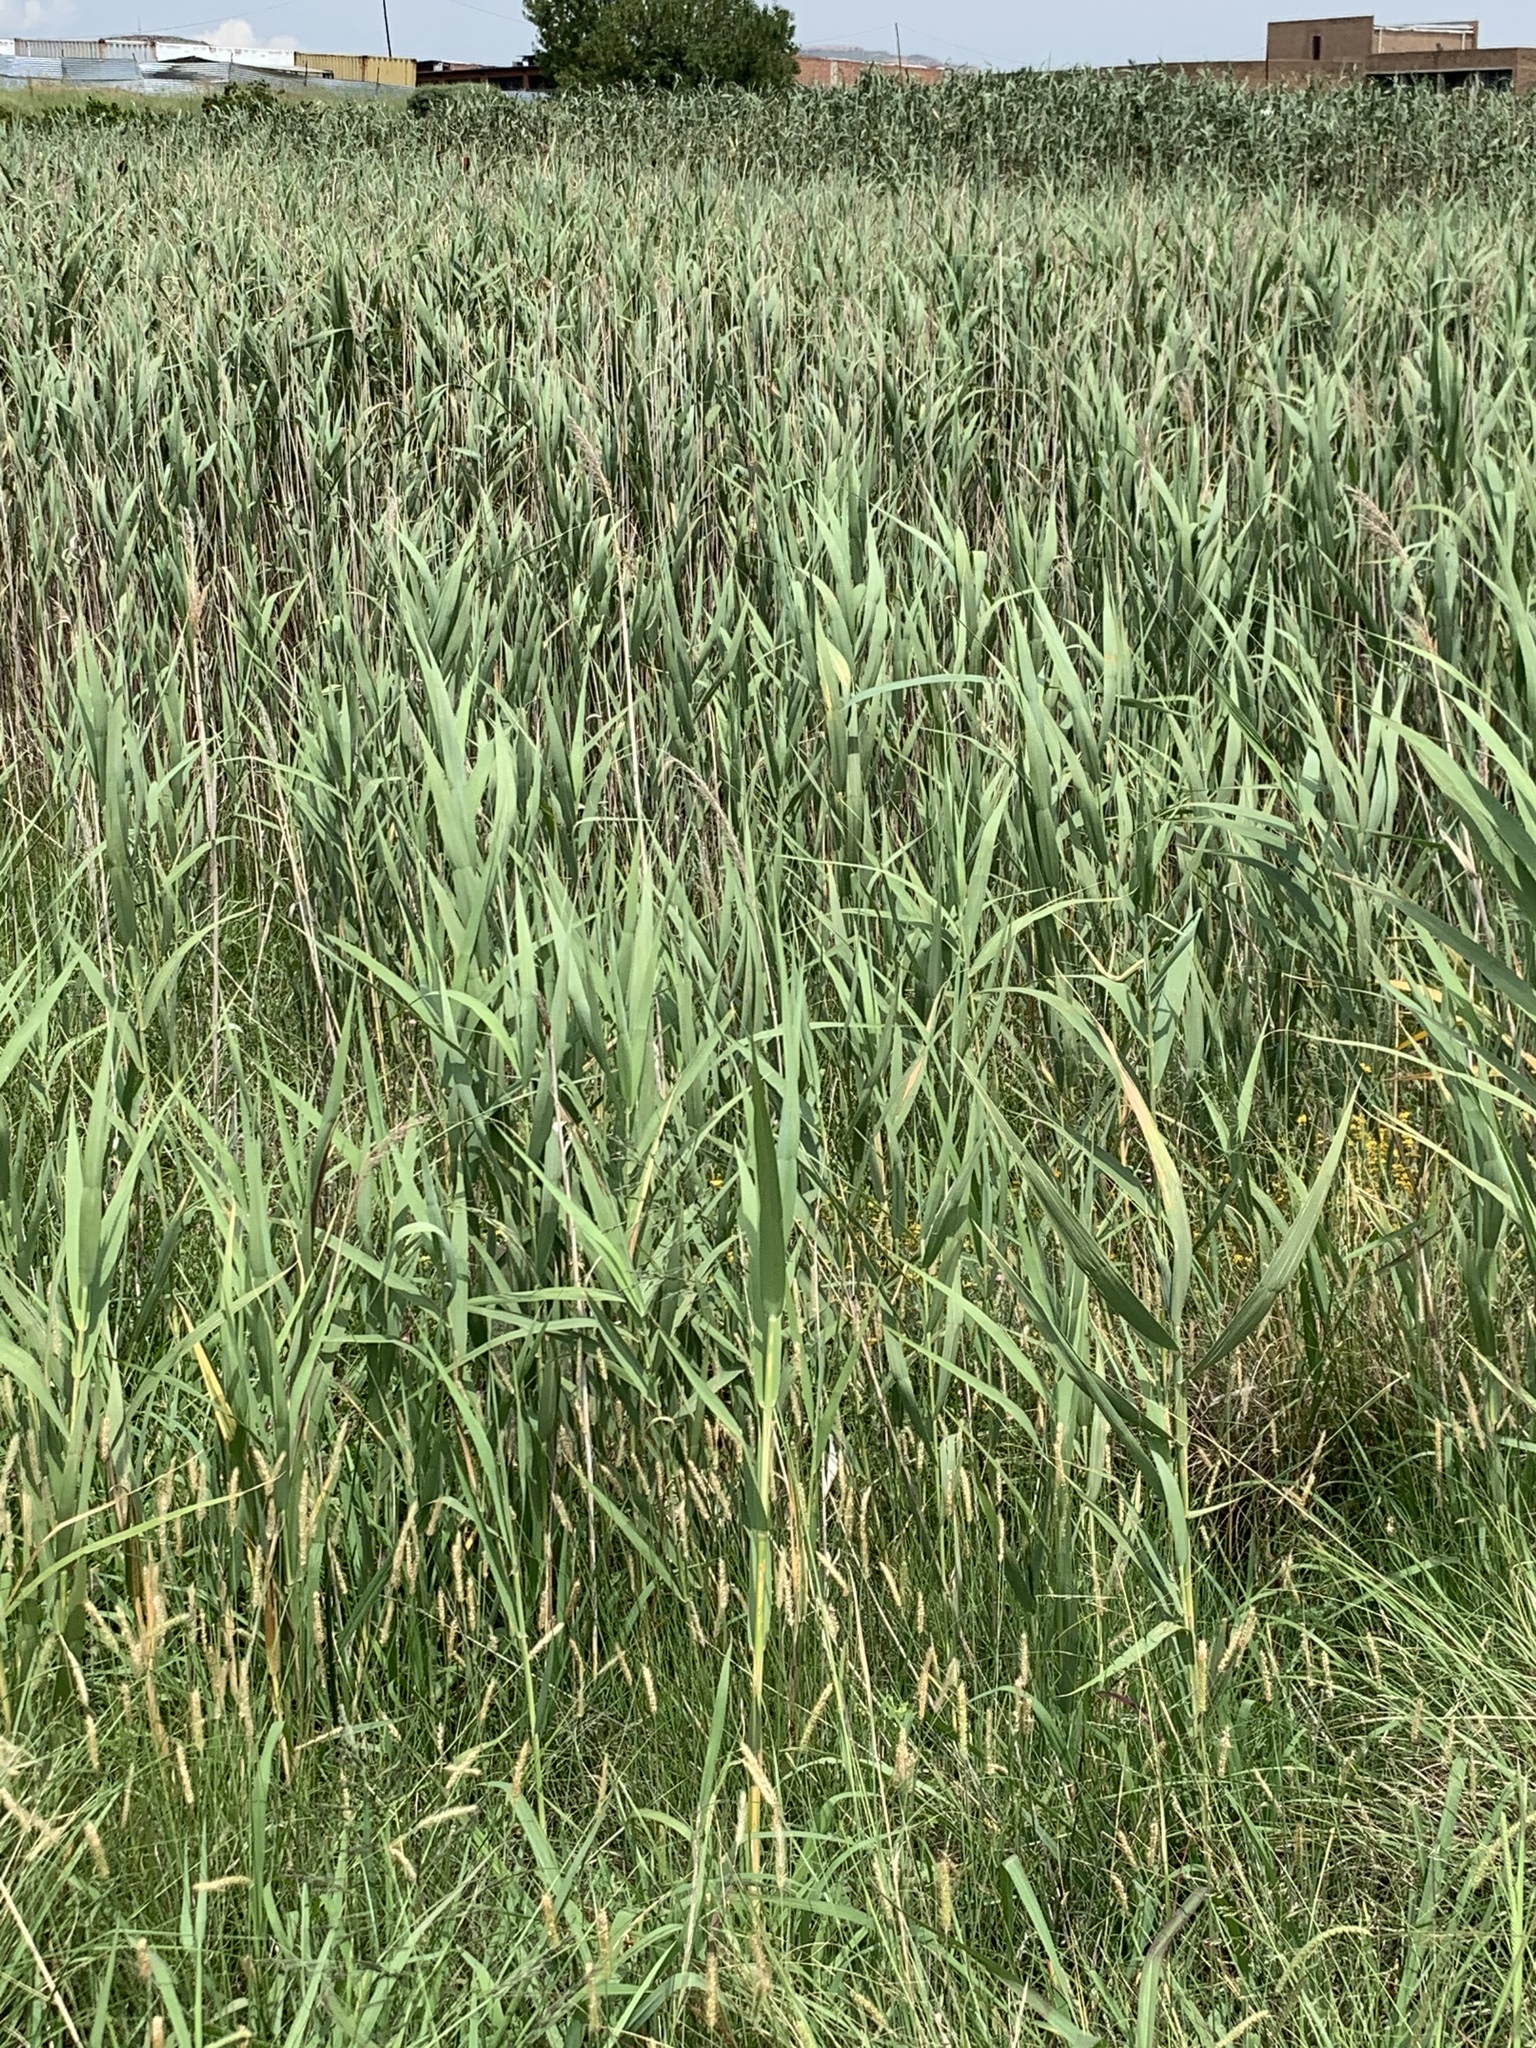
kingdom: Plantae
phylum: Tracheophyta
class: Liliopsida
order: Poales
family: Poaceae
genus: Phragmites
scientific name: Phragmites australis
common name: Common reed
